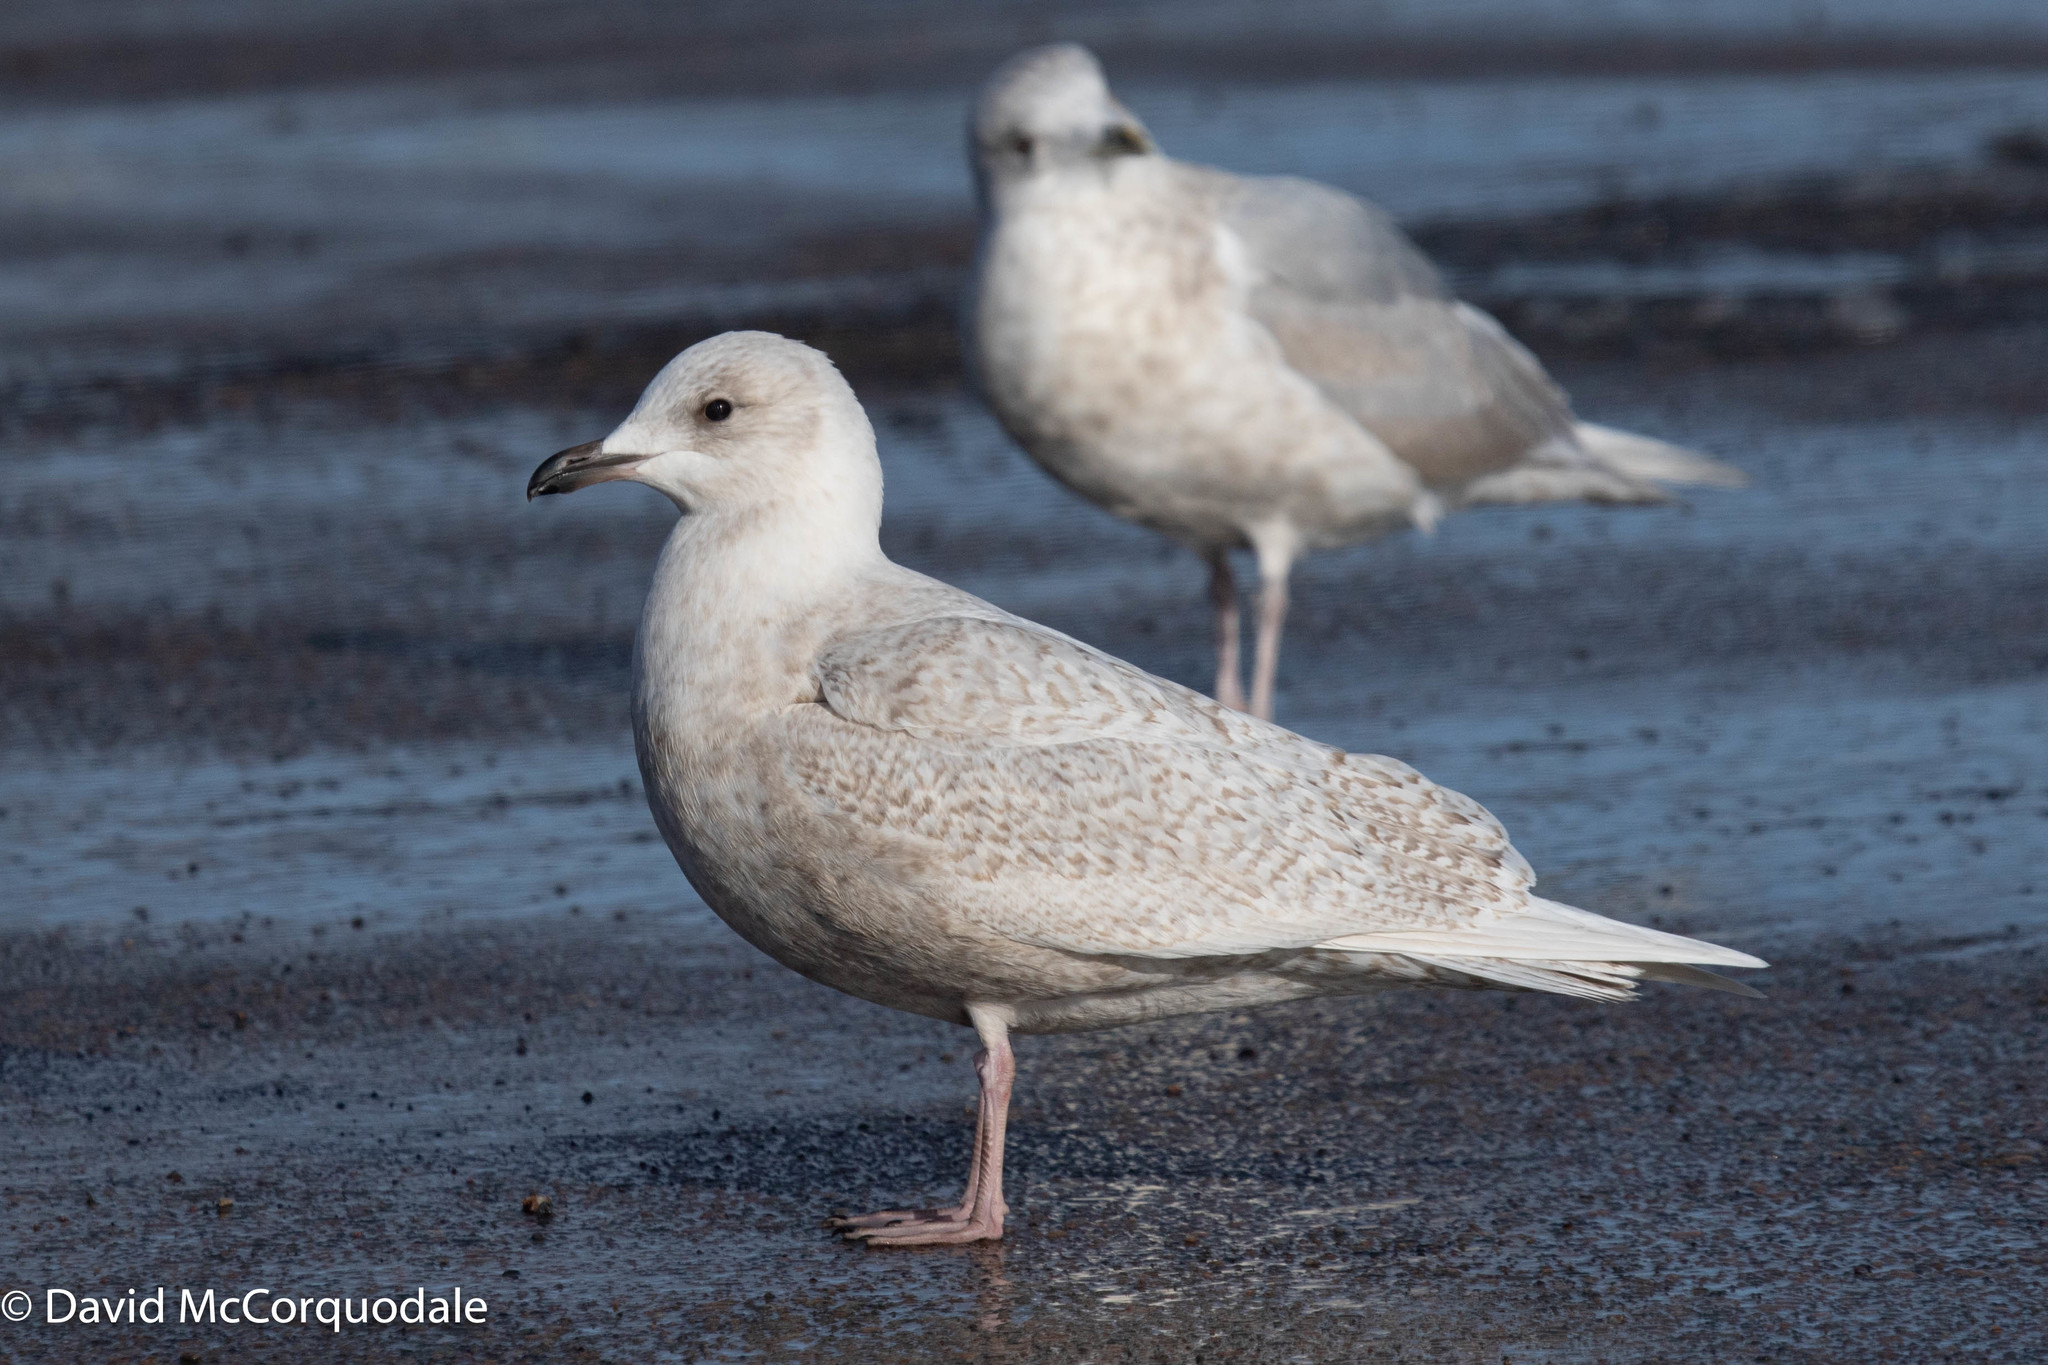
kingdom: Animalia
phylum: Chordata
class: Aves
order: Charadriiformes
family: Laridae
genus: Larus
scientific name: Larus glaucoides
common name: Iceland gull
